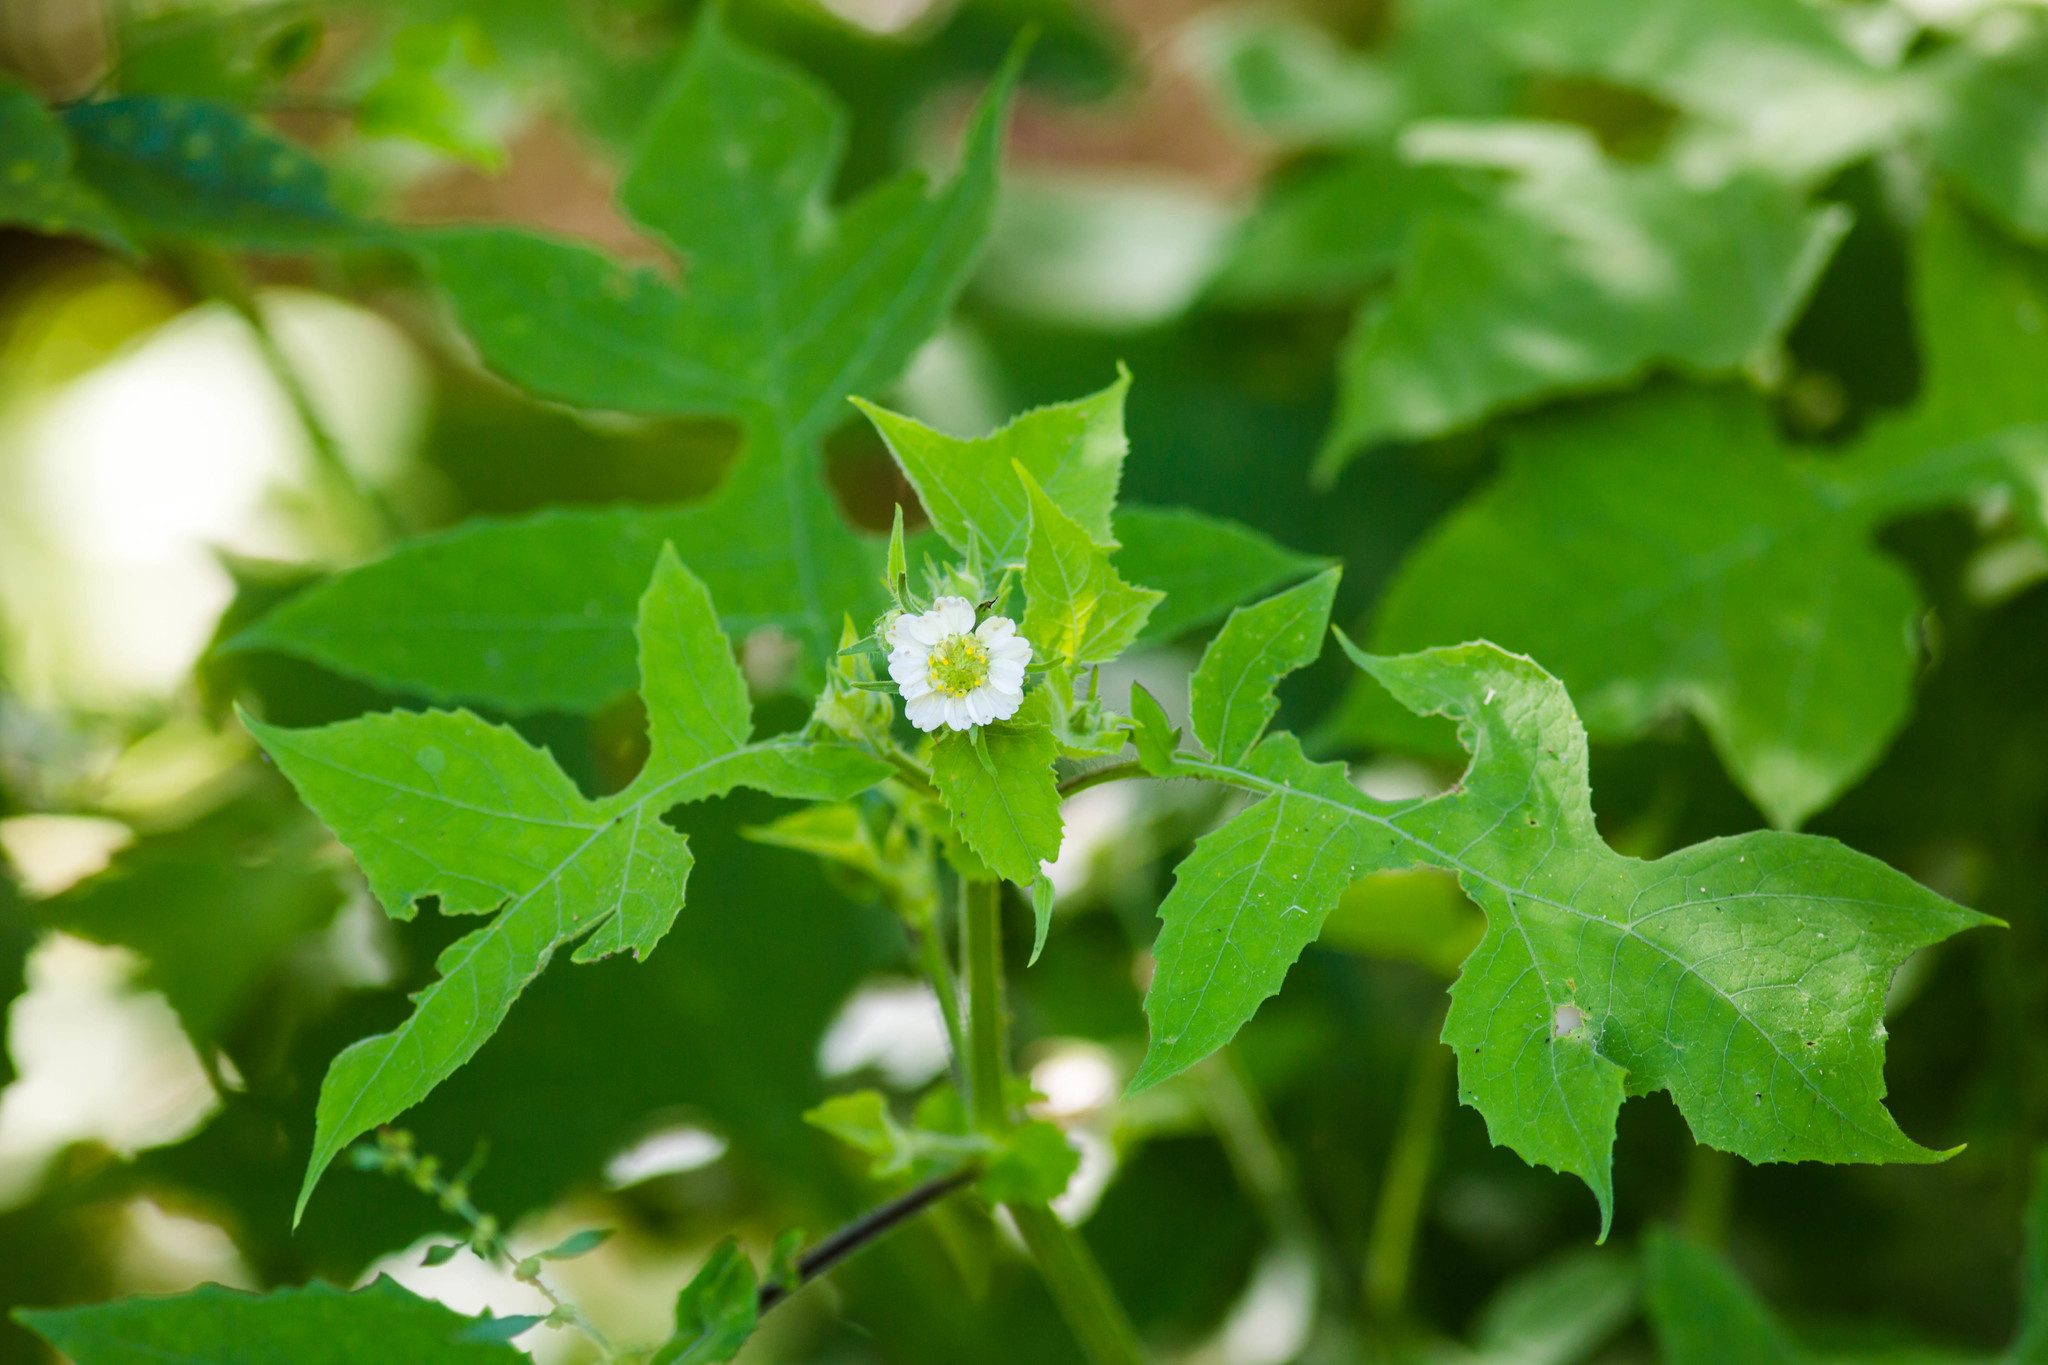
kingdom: Plantae
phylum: Tracheophyta
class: Magnoliopsida
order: Asterales
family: Asteraceae
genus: Polymnia
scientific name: Polymnia canadensis
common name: Pale-flowered leafcup
